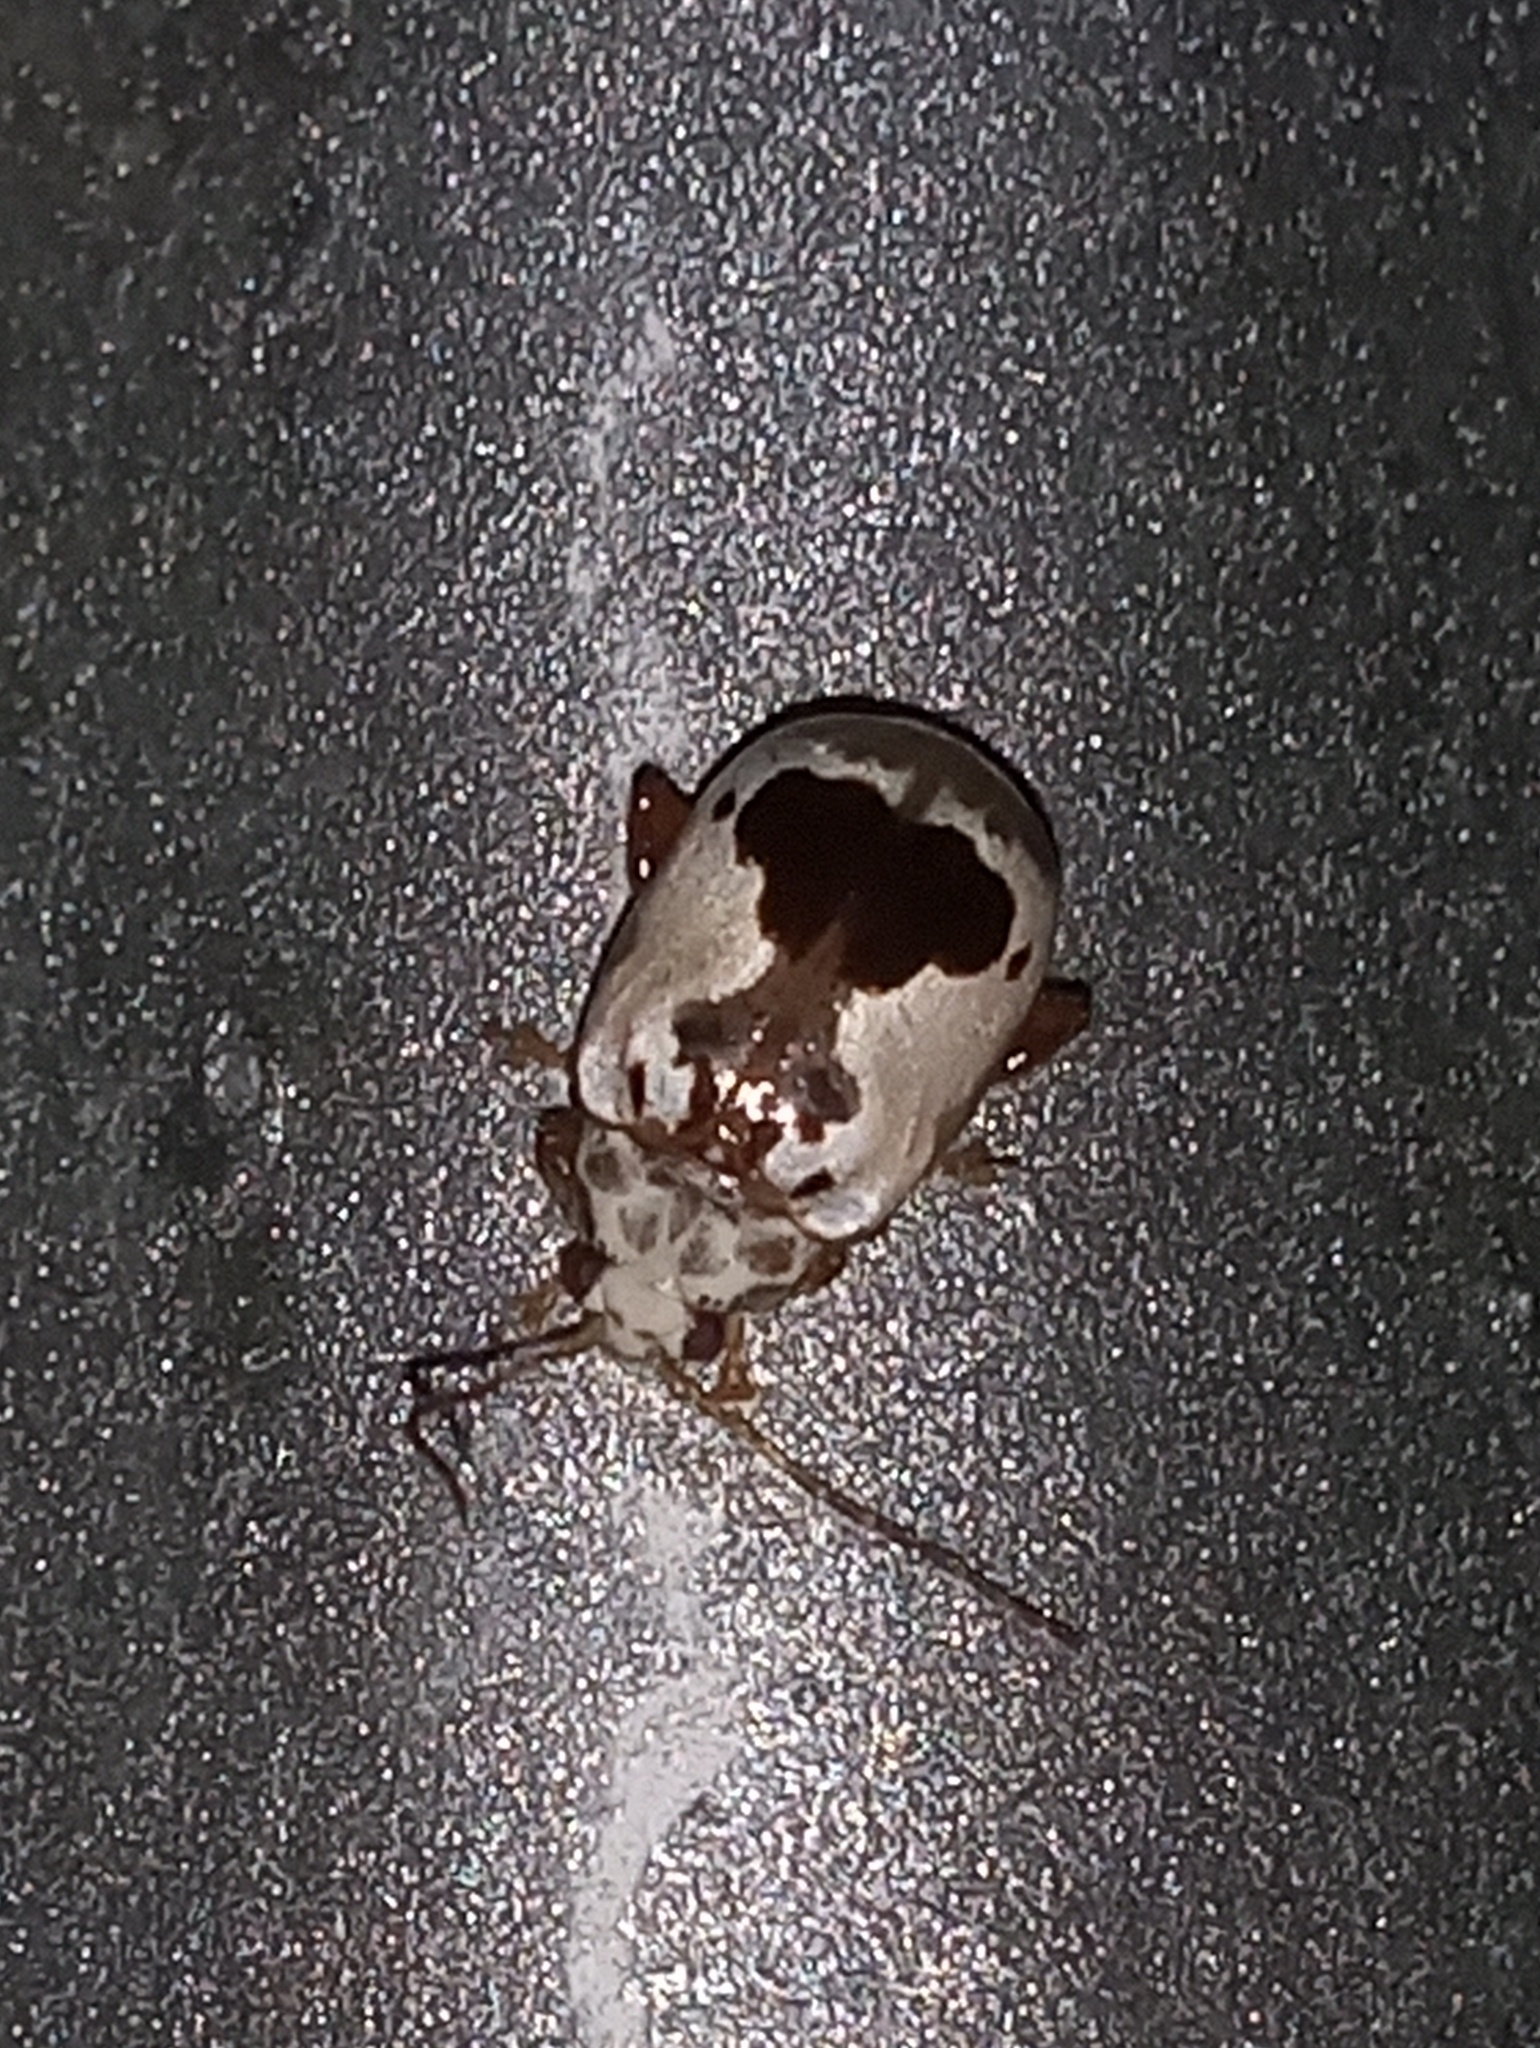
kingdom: Animalia
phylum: Arthropoda
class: Insecta
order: Coleoptera
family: Chrysomelidae
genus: Acrocyum
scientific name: Acrocyum
